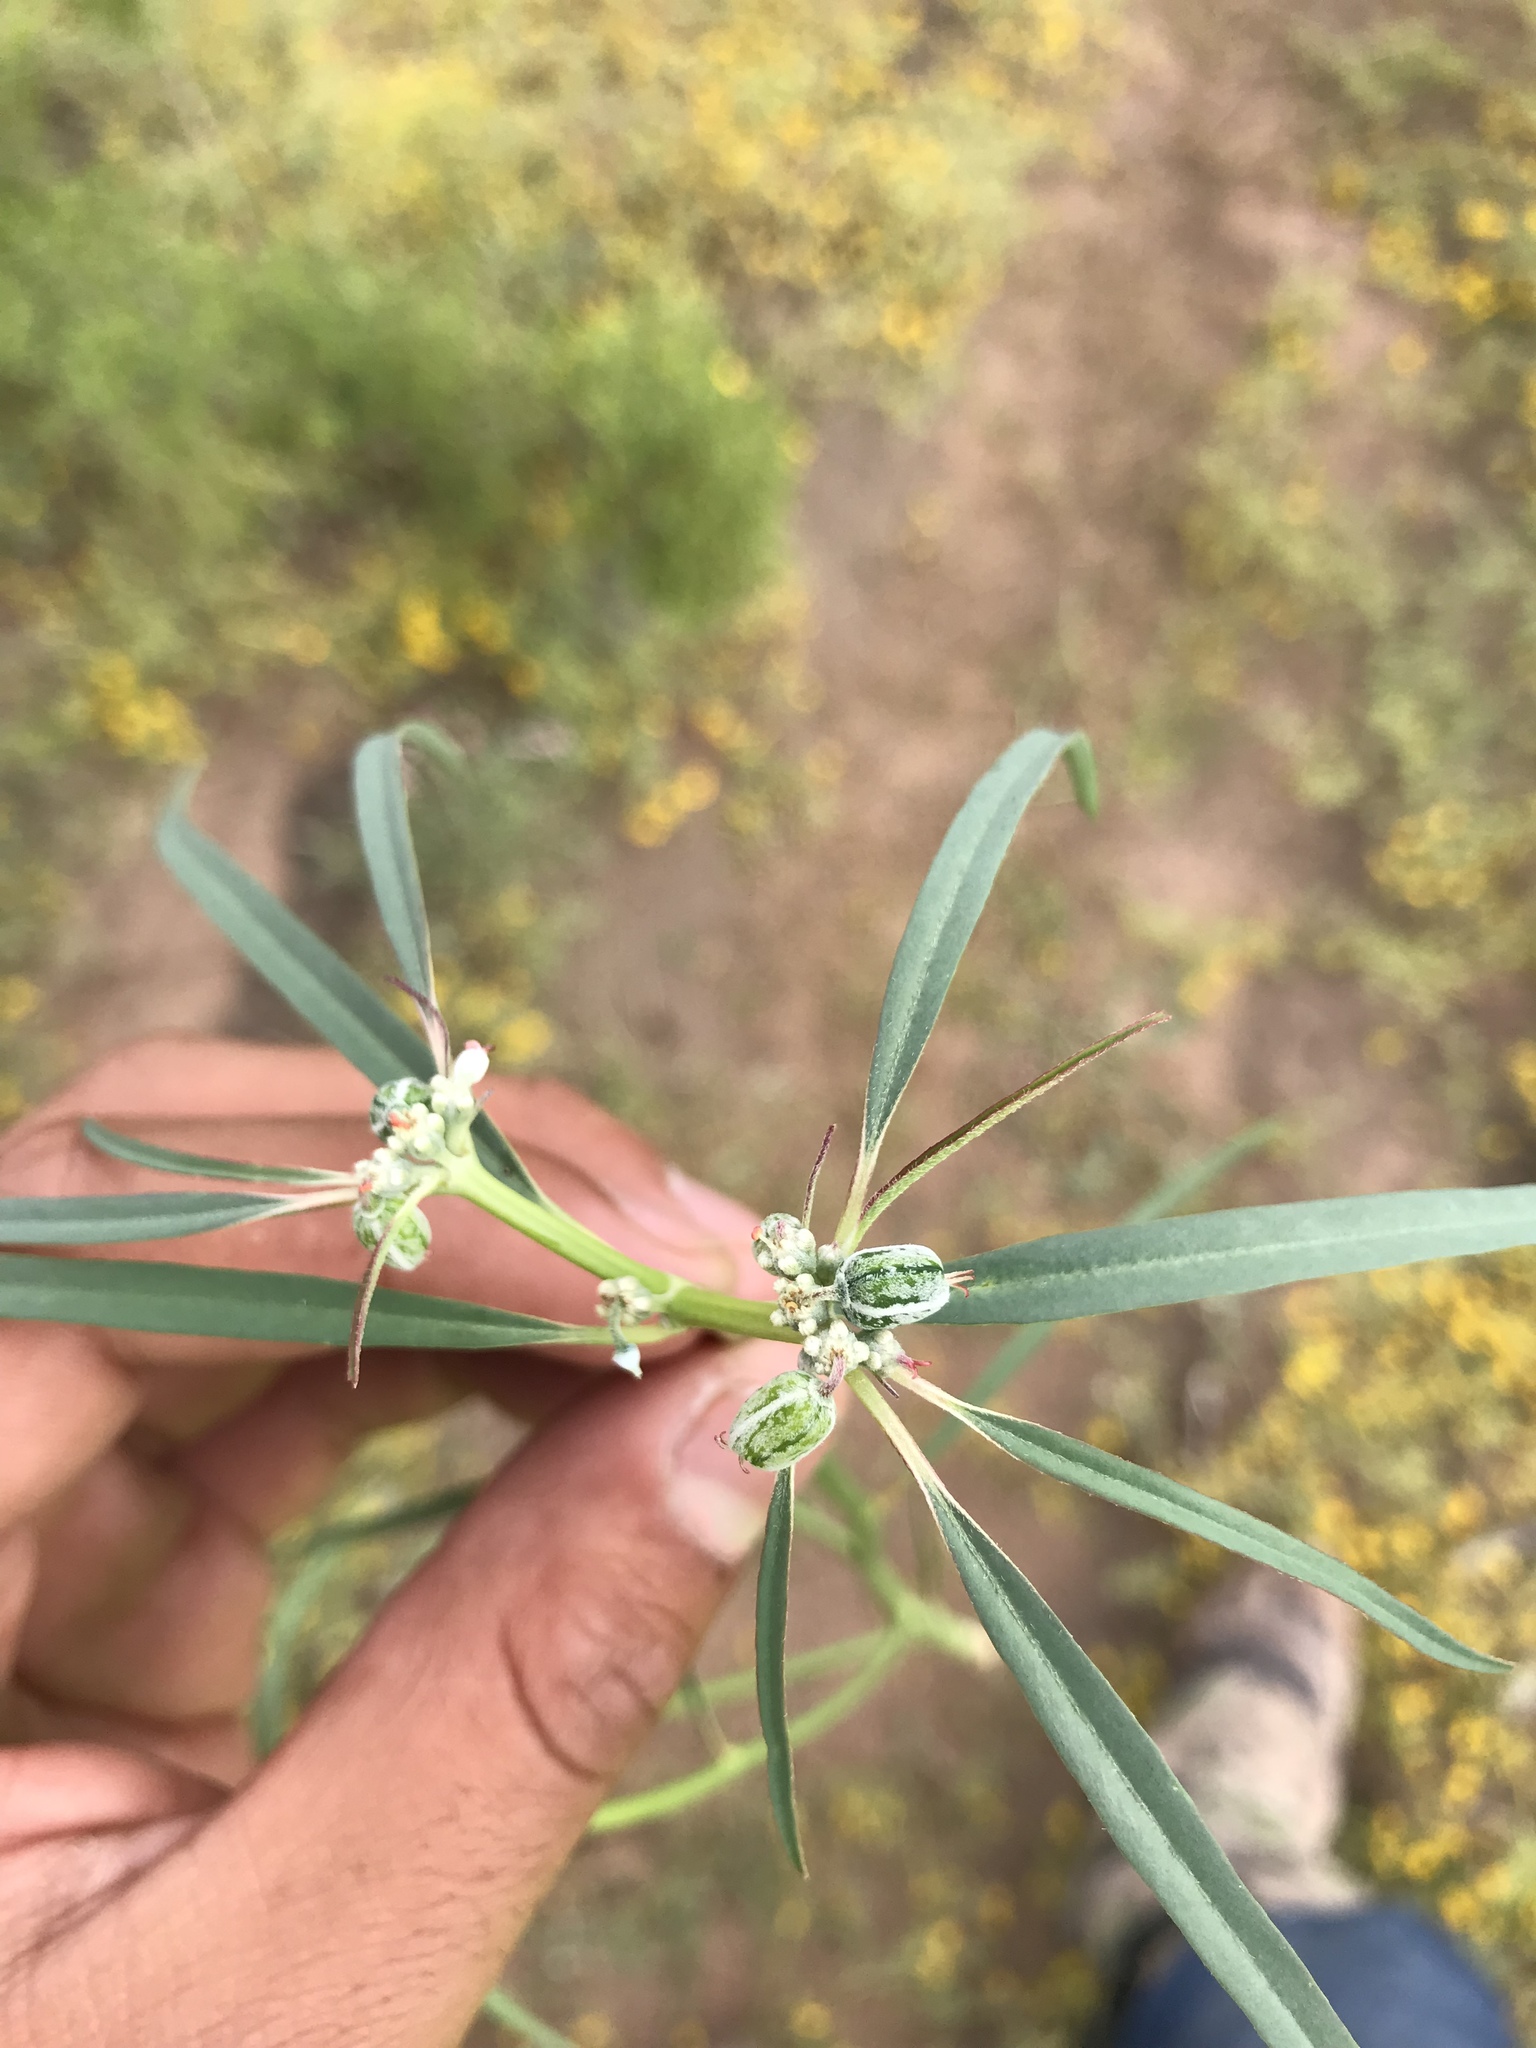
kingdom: Plantae
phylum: Tracheophyta
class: Magnoliopsida
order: Malpighiales
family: Euphorbiaceae
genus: Euphorbia
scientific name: Euphorbia eriantha
